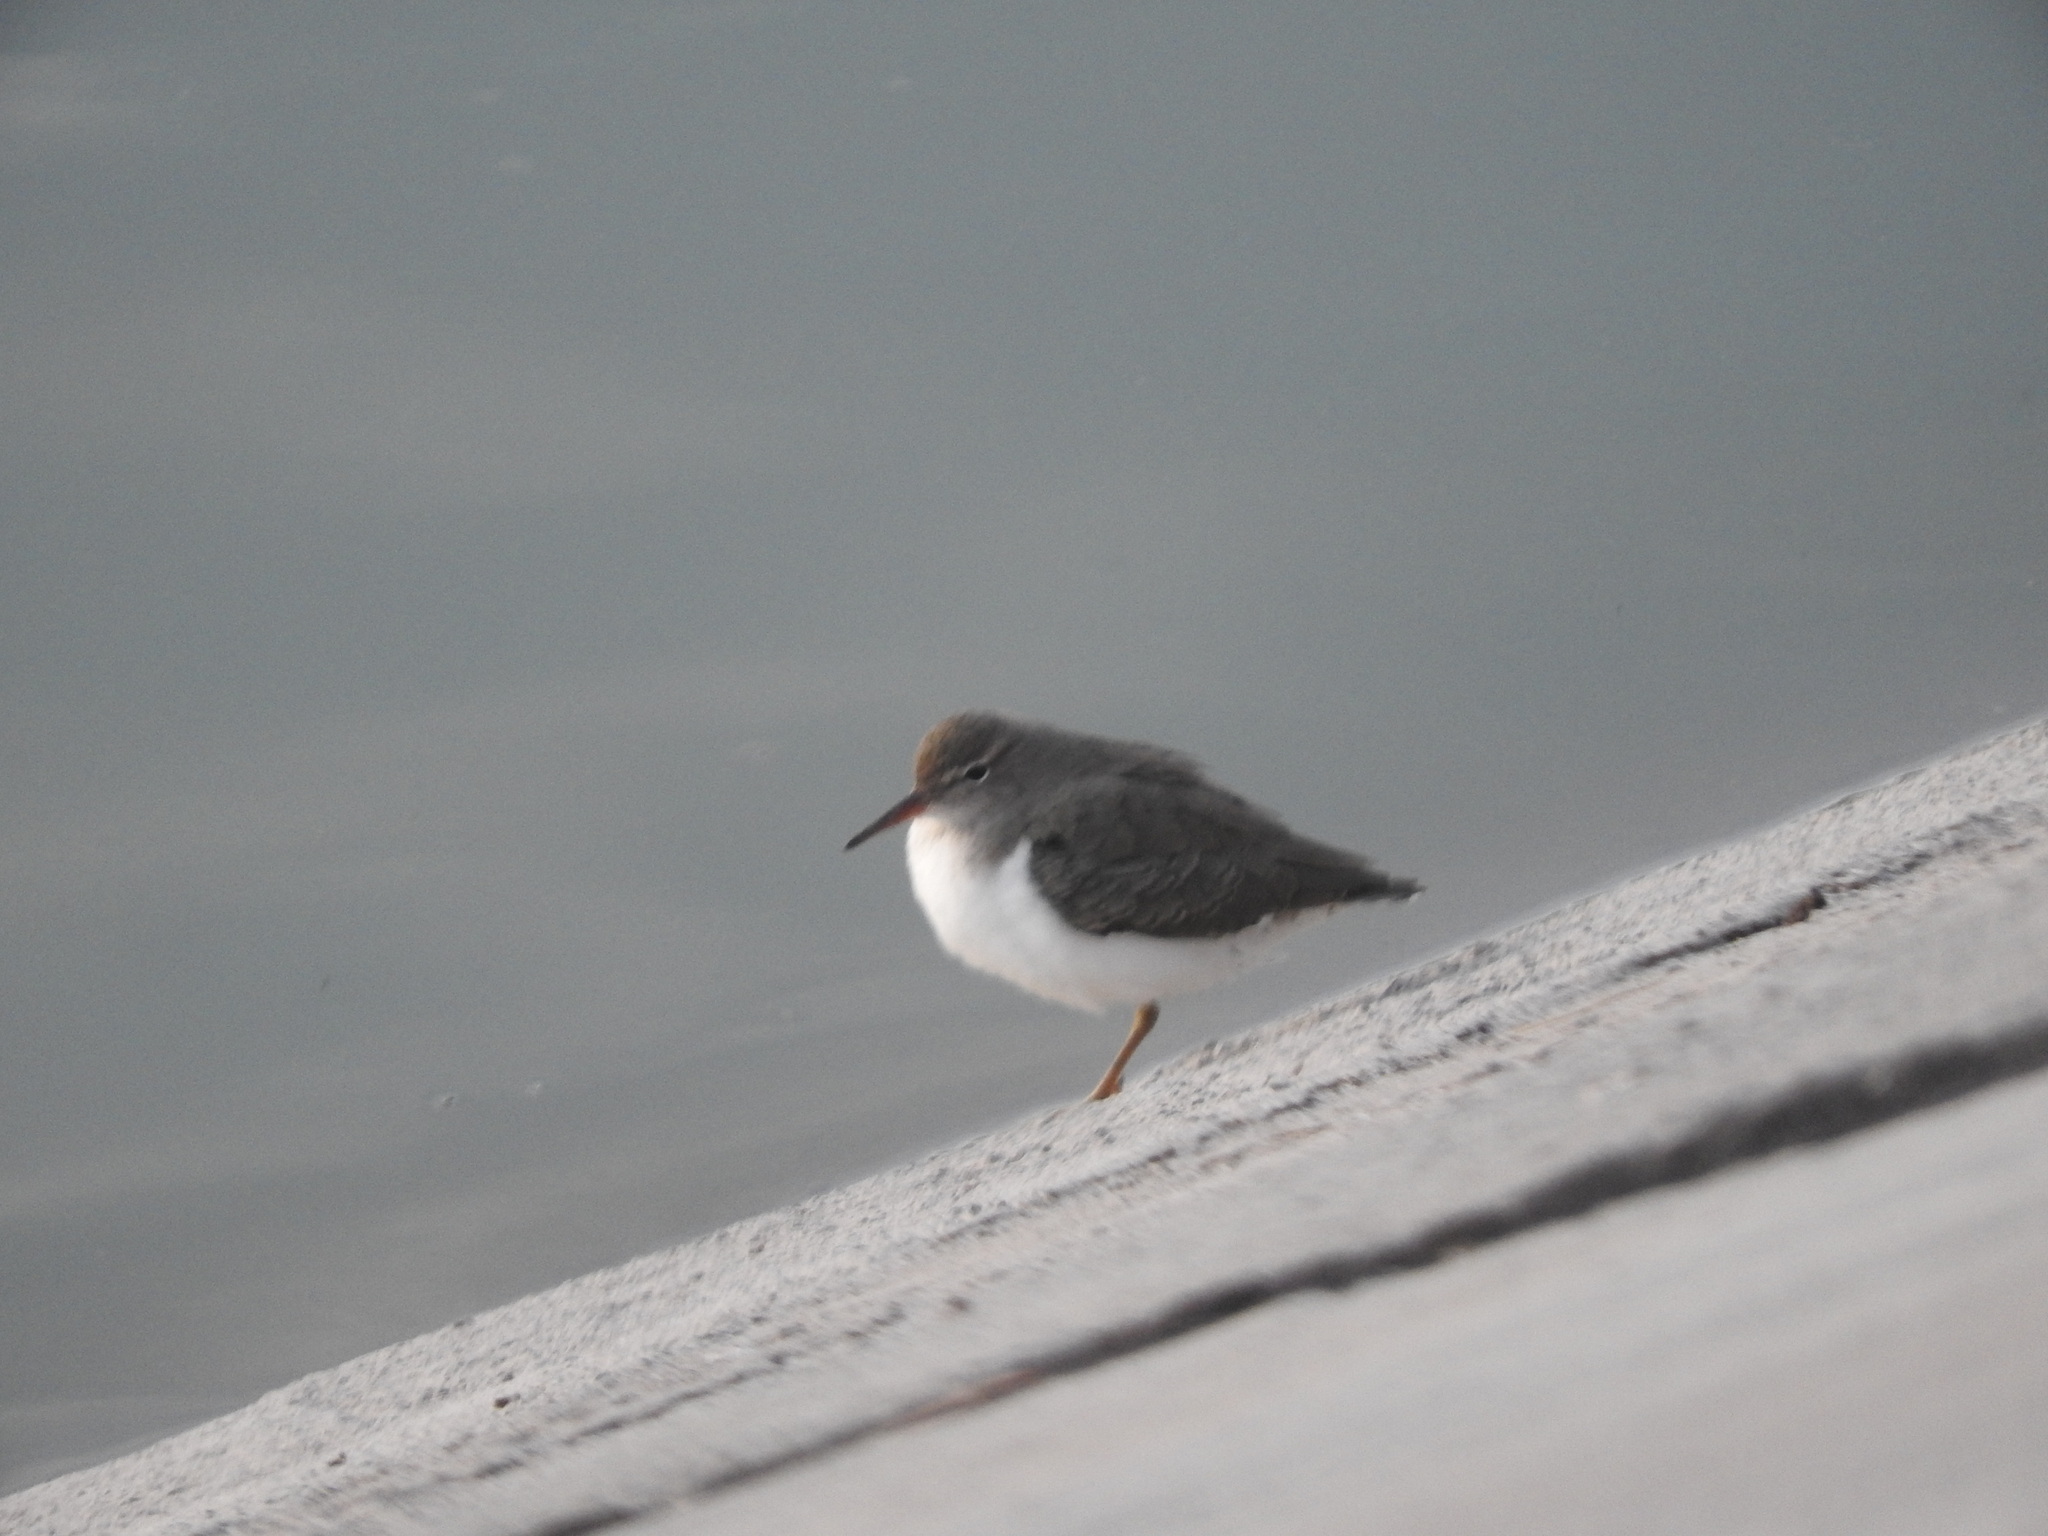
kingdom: Animalia
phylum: Chordata
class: Aves
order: Charadriiformes
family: Scolopacidae
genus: Actitis
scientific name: Actitis macularius
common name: Spotted sandpiper
